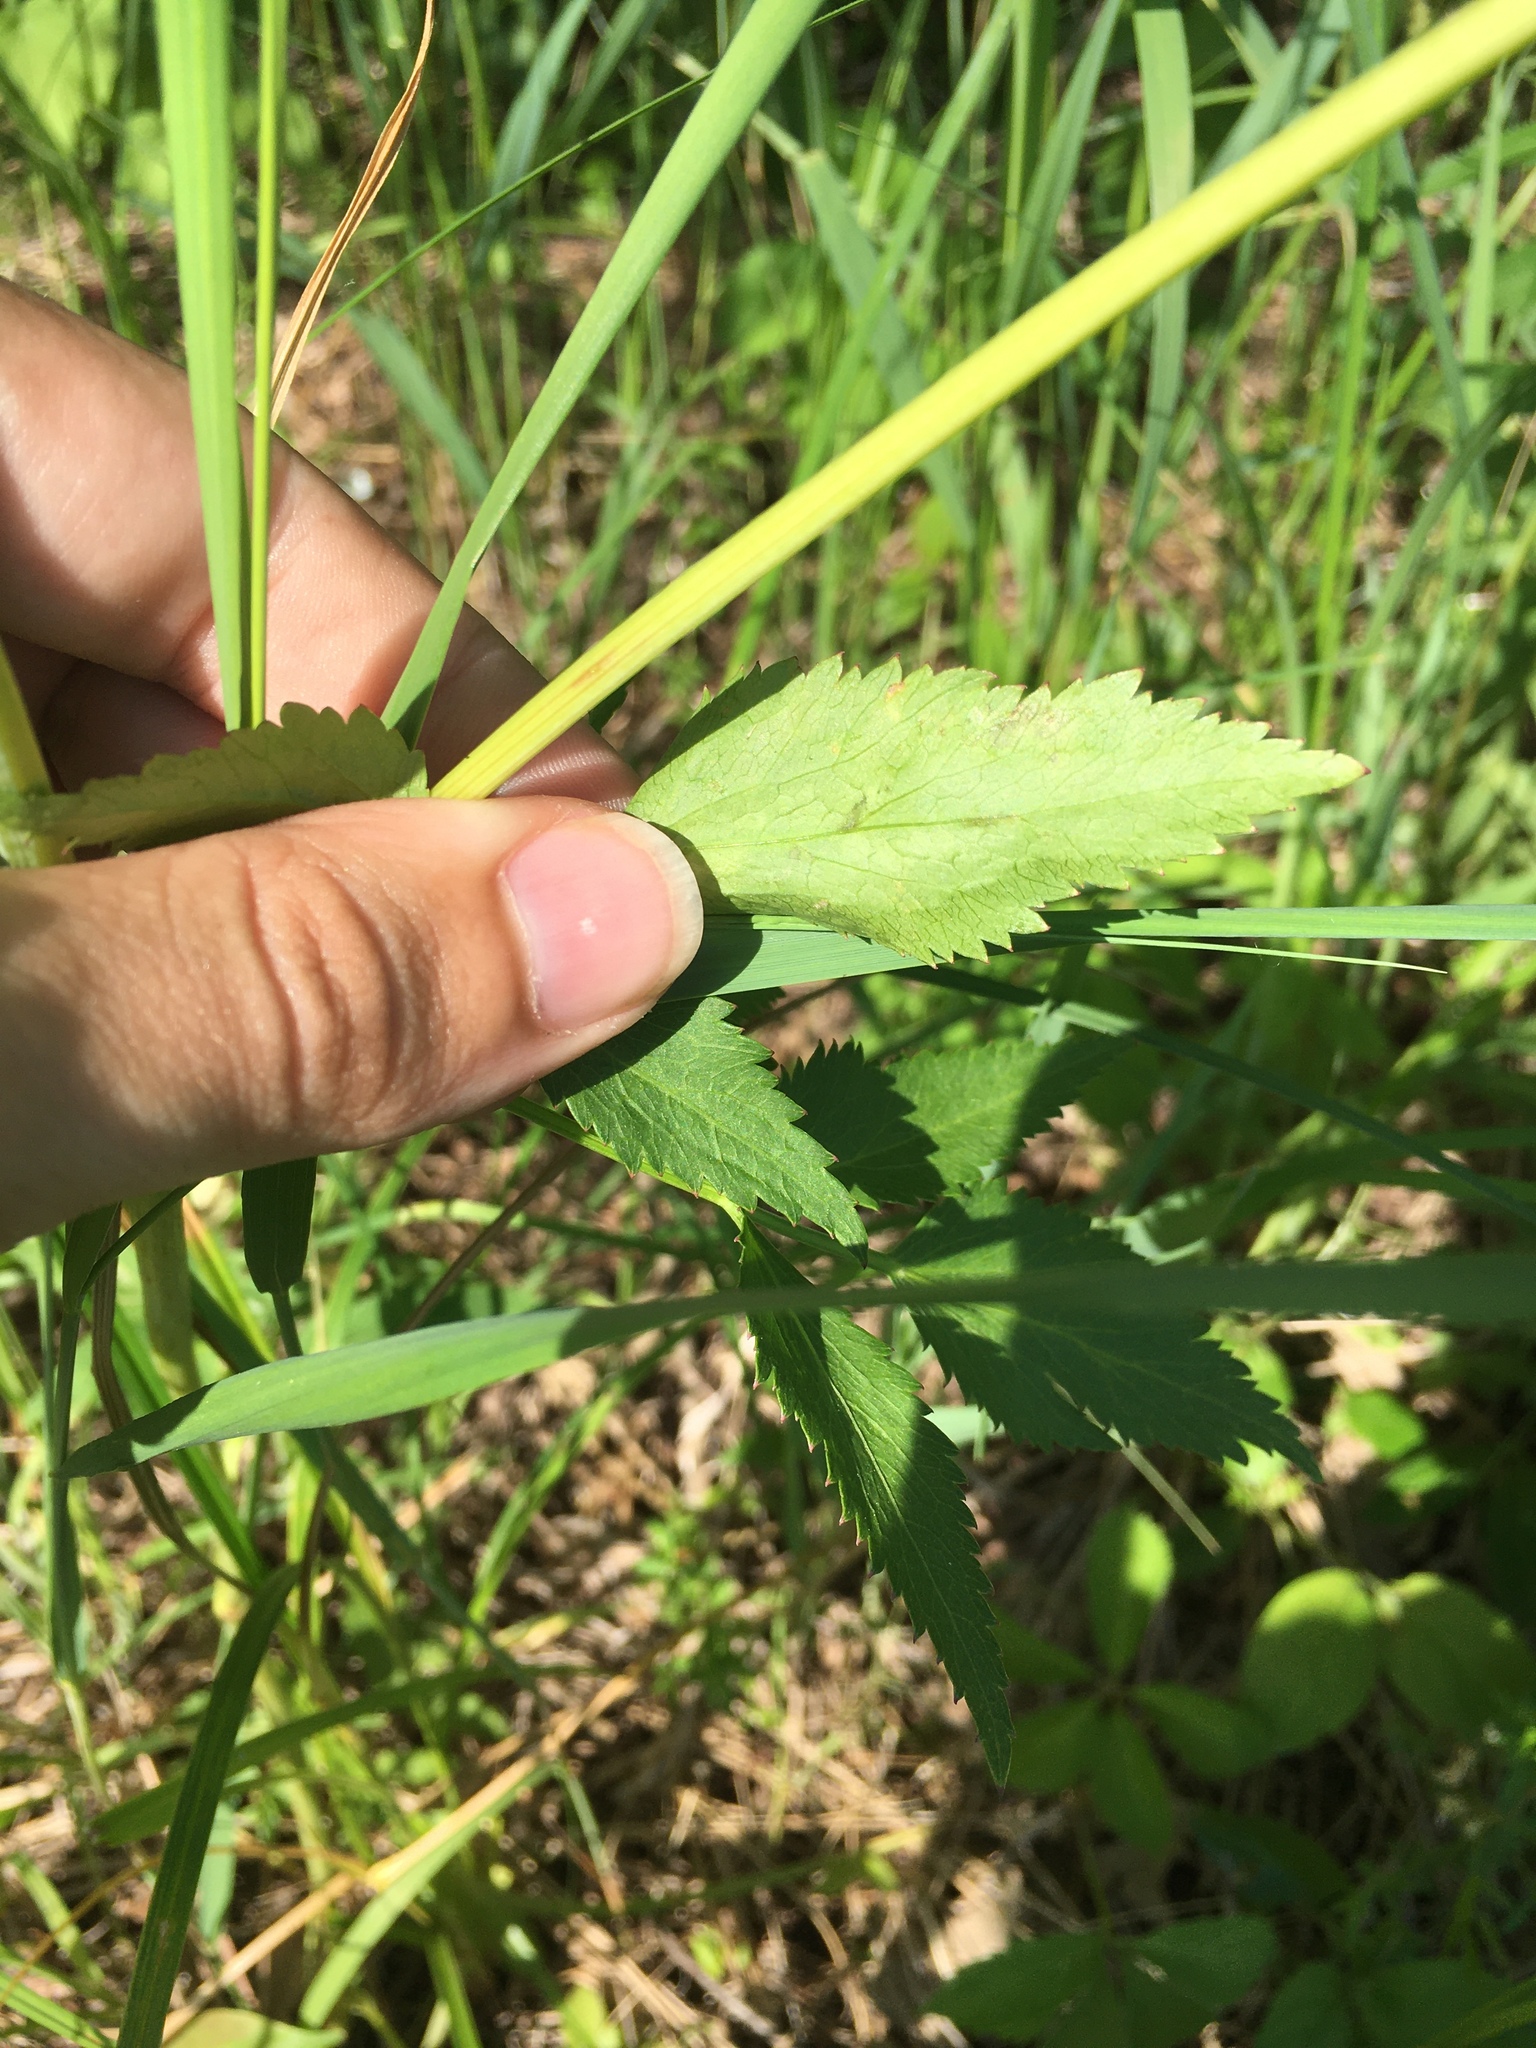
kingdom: Animalia
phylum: Arthropoda
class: Insecta
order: Diptera
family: Agromyzidae
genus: Phytomyza
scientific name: Phytomyza ziziae
